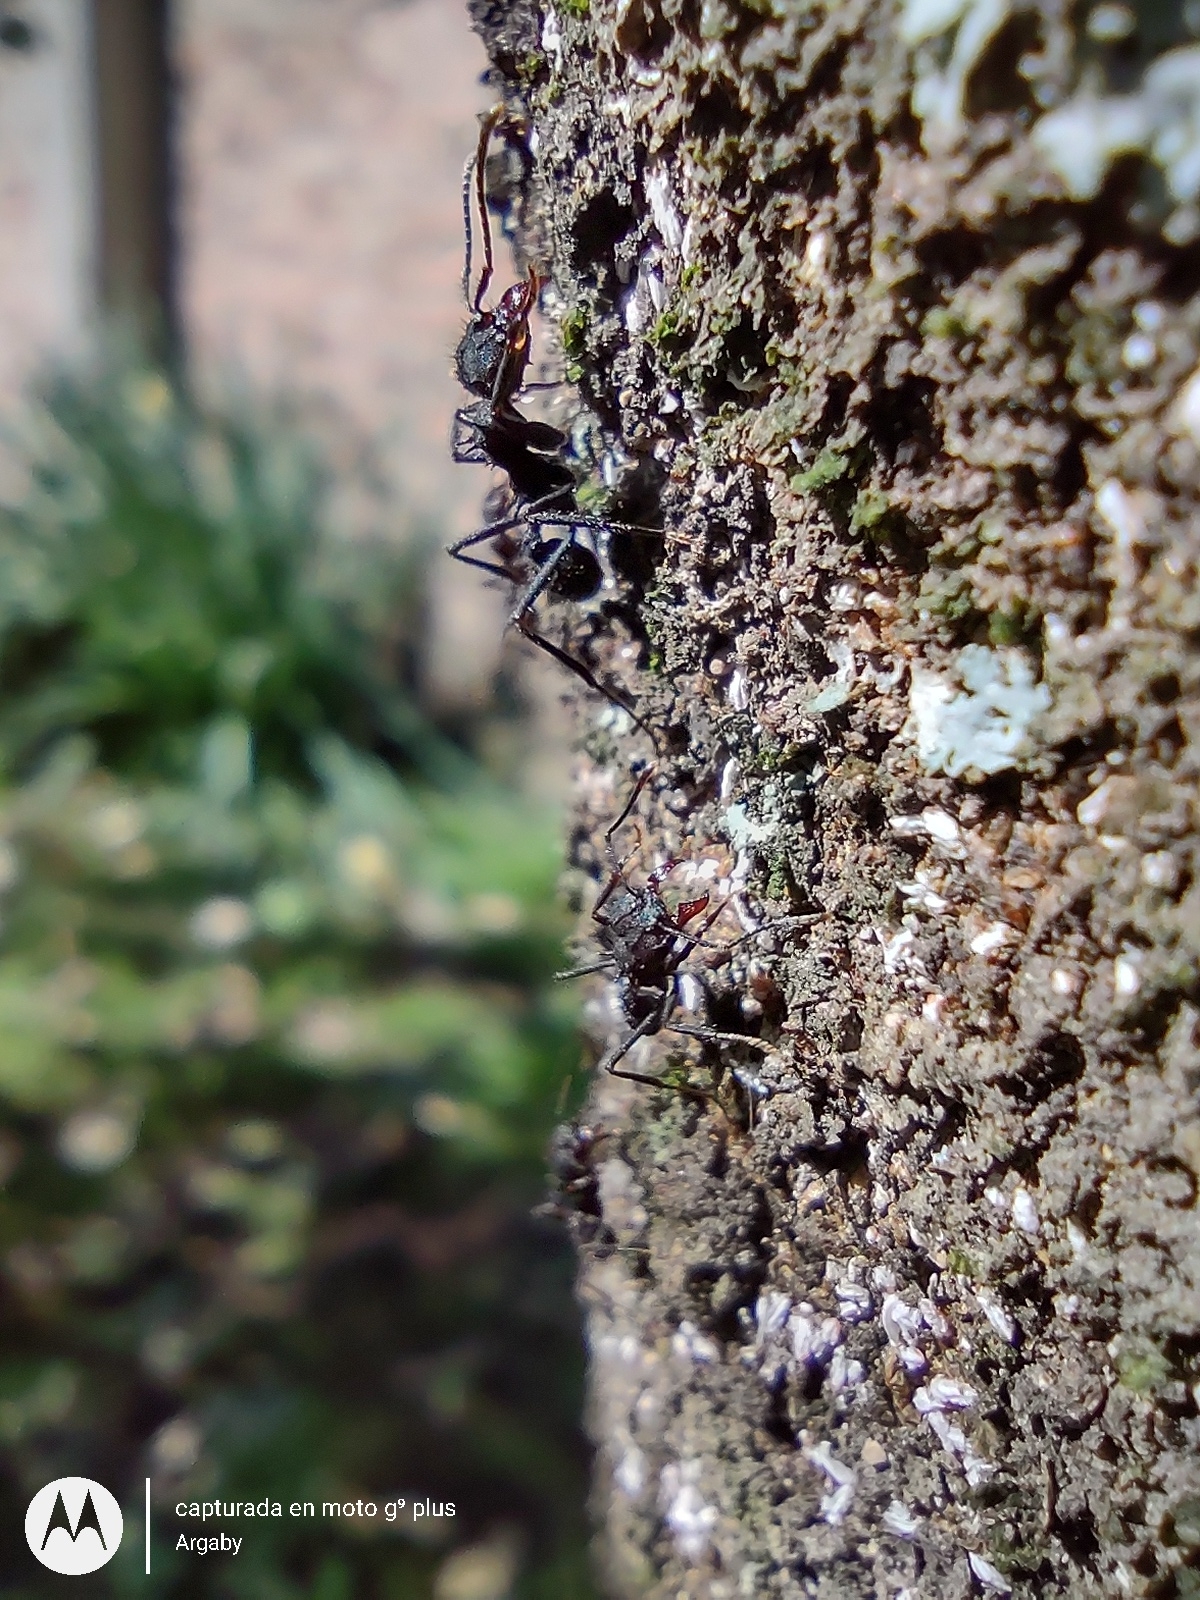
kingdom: Animalia
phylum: Arthropoda
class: Insecta
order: Hymenoptera
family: Formicidae
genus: Acromyrmex
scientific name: Acromyrmex
